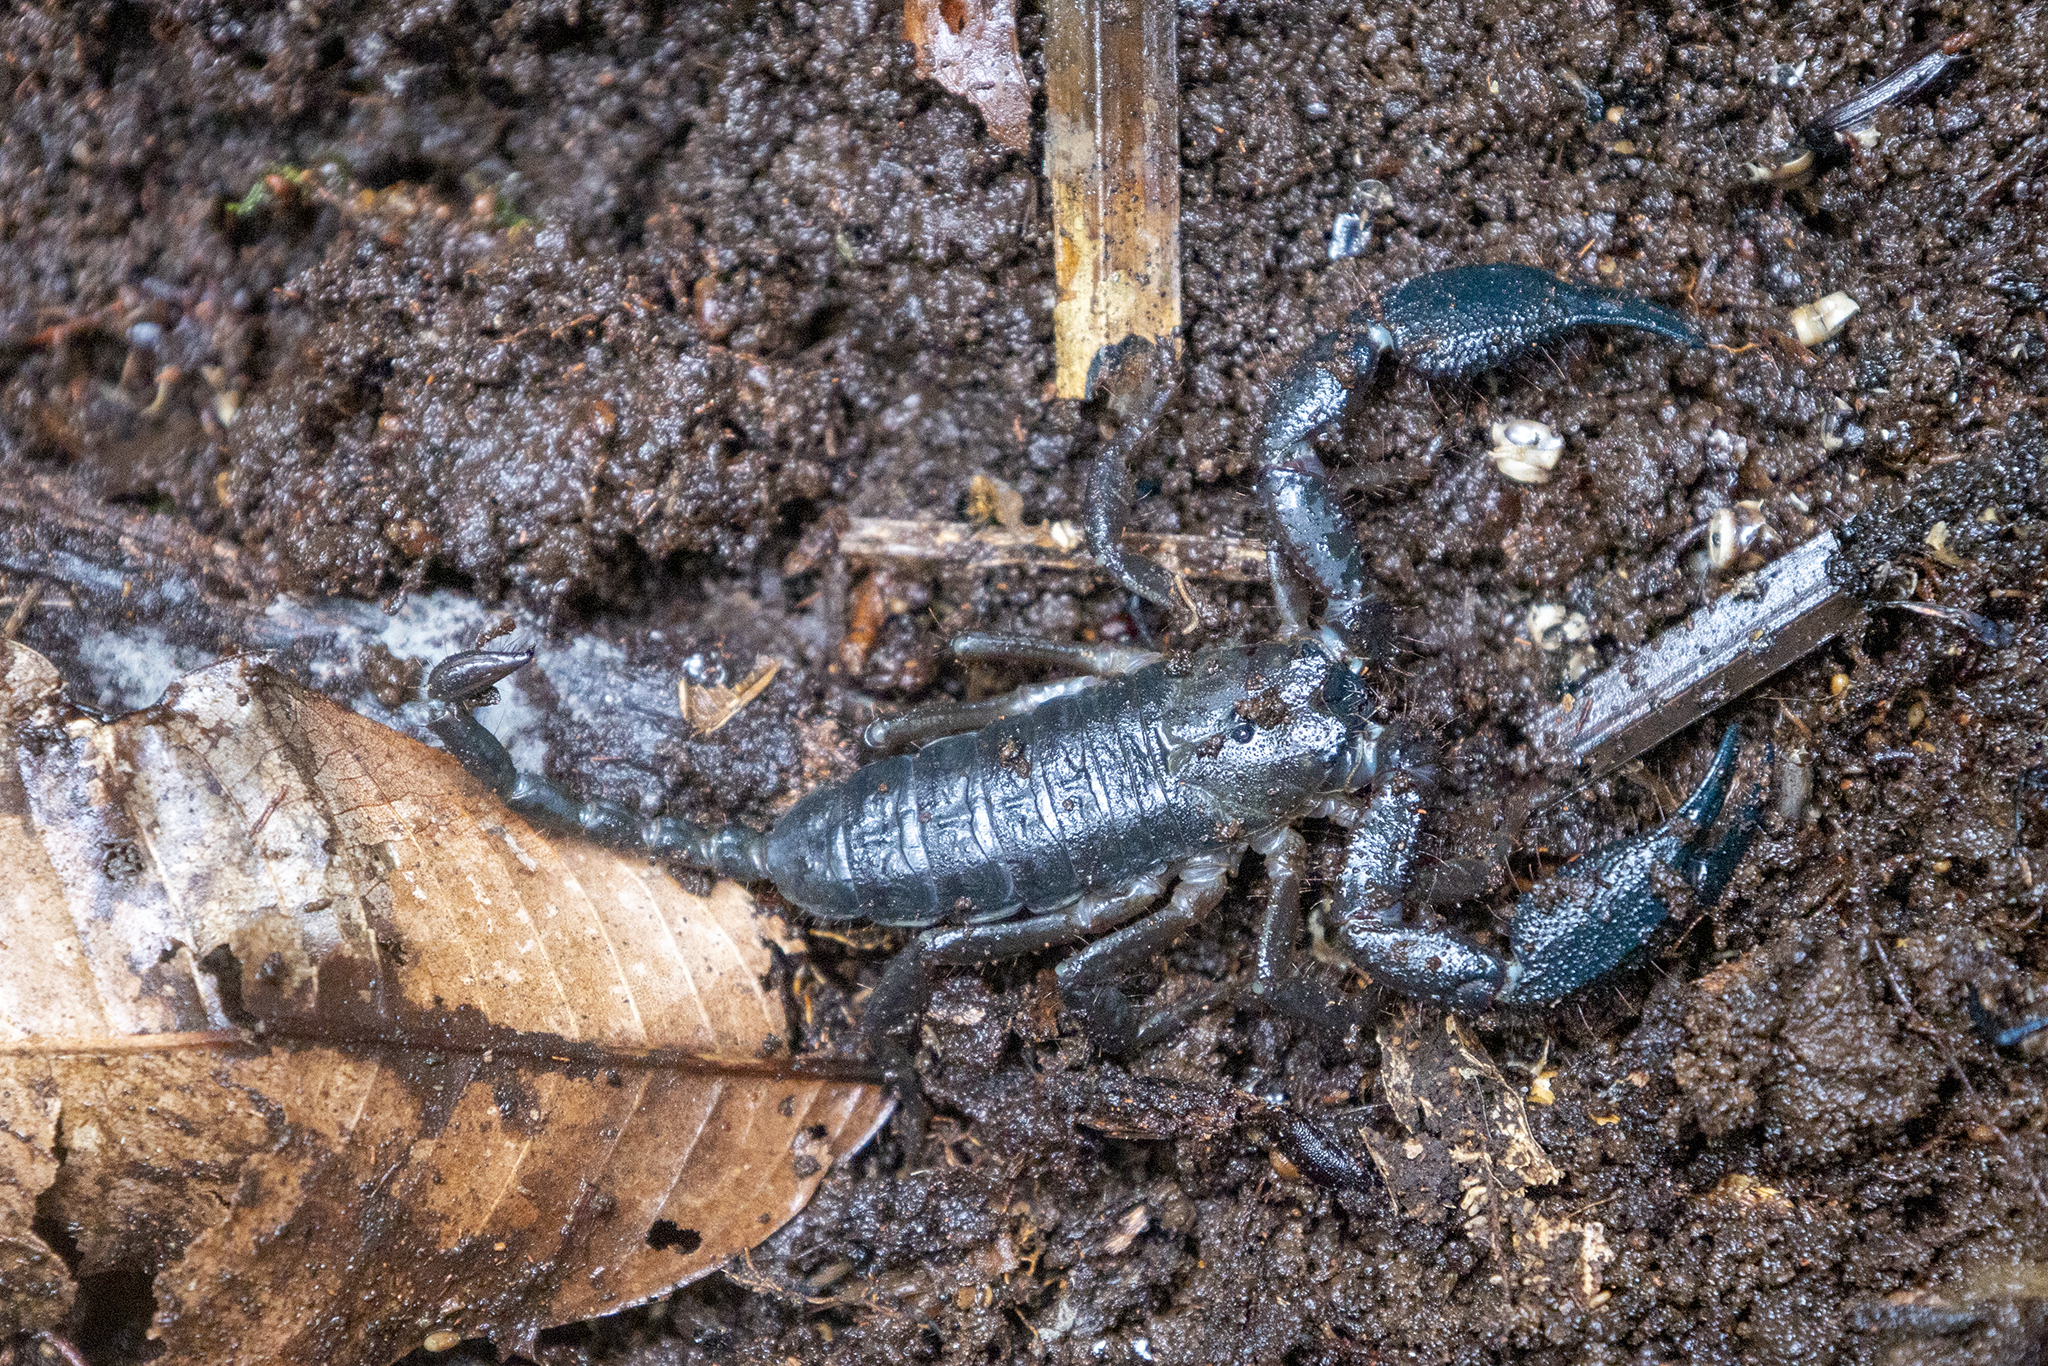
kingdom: Animalia
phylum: Arthropoda
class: Arachnida
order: Scorpiones
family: Hormuridae
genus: Opisthacanthus
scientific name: Opisthacanthus elatus
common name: Scorpions
